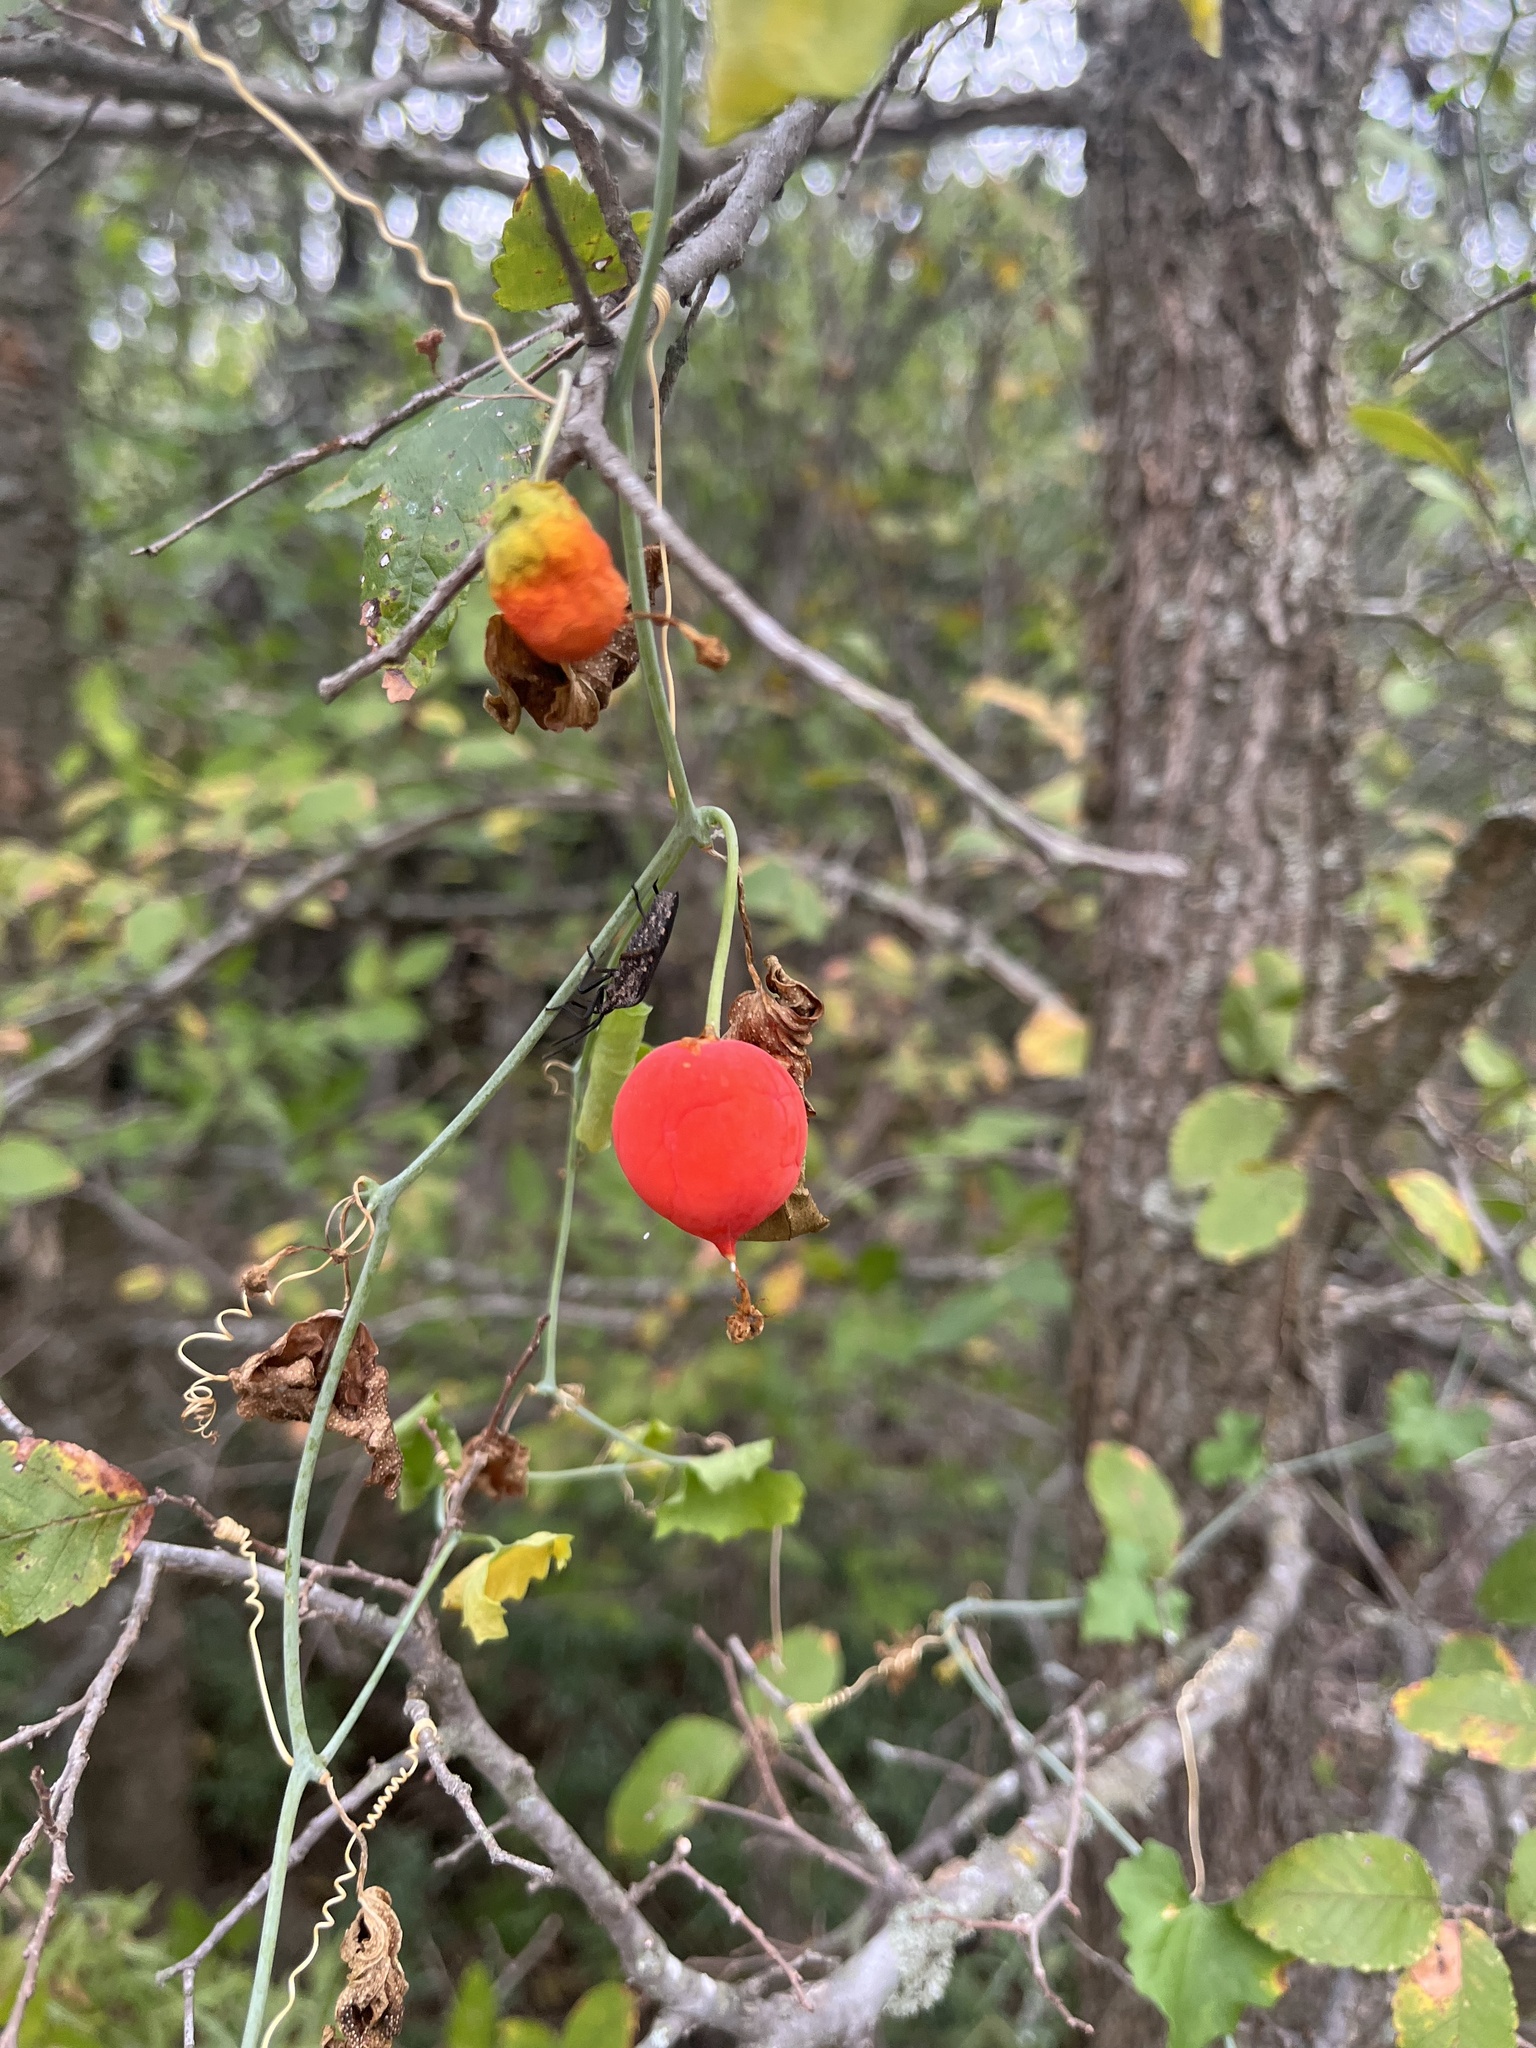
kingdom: Plantae
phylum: Tracheophyta
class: Magnoliopsida
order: Cucurbitales
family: Cucurbitaceae
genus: Ibervillea
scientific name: Ibervillea lindheimeri
